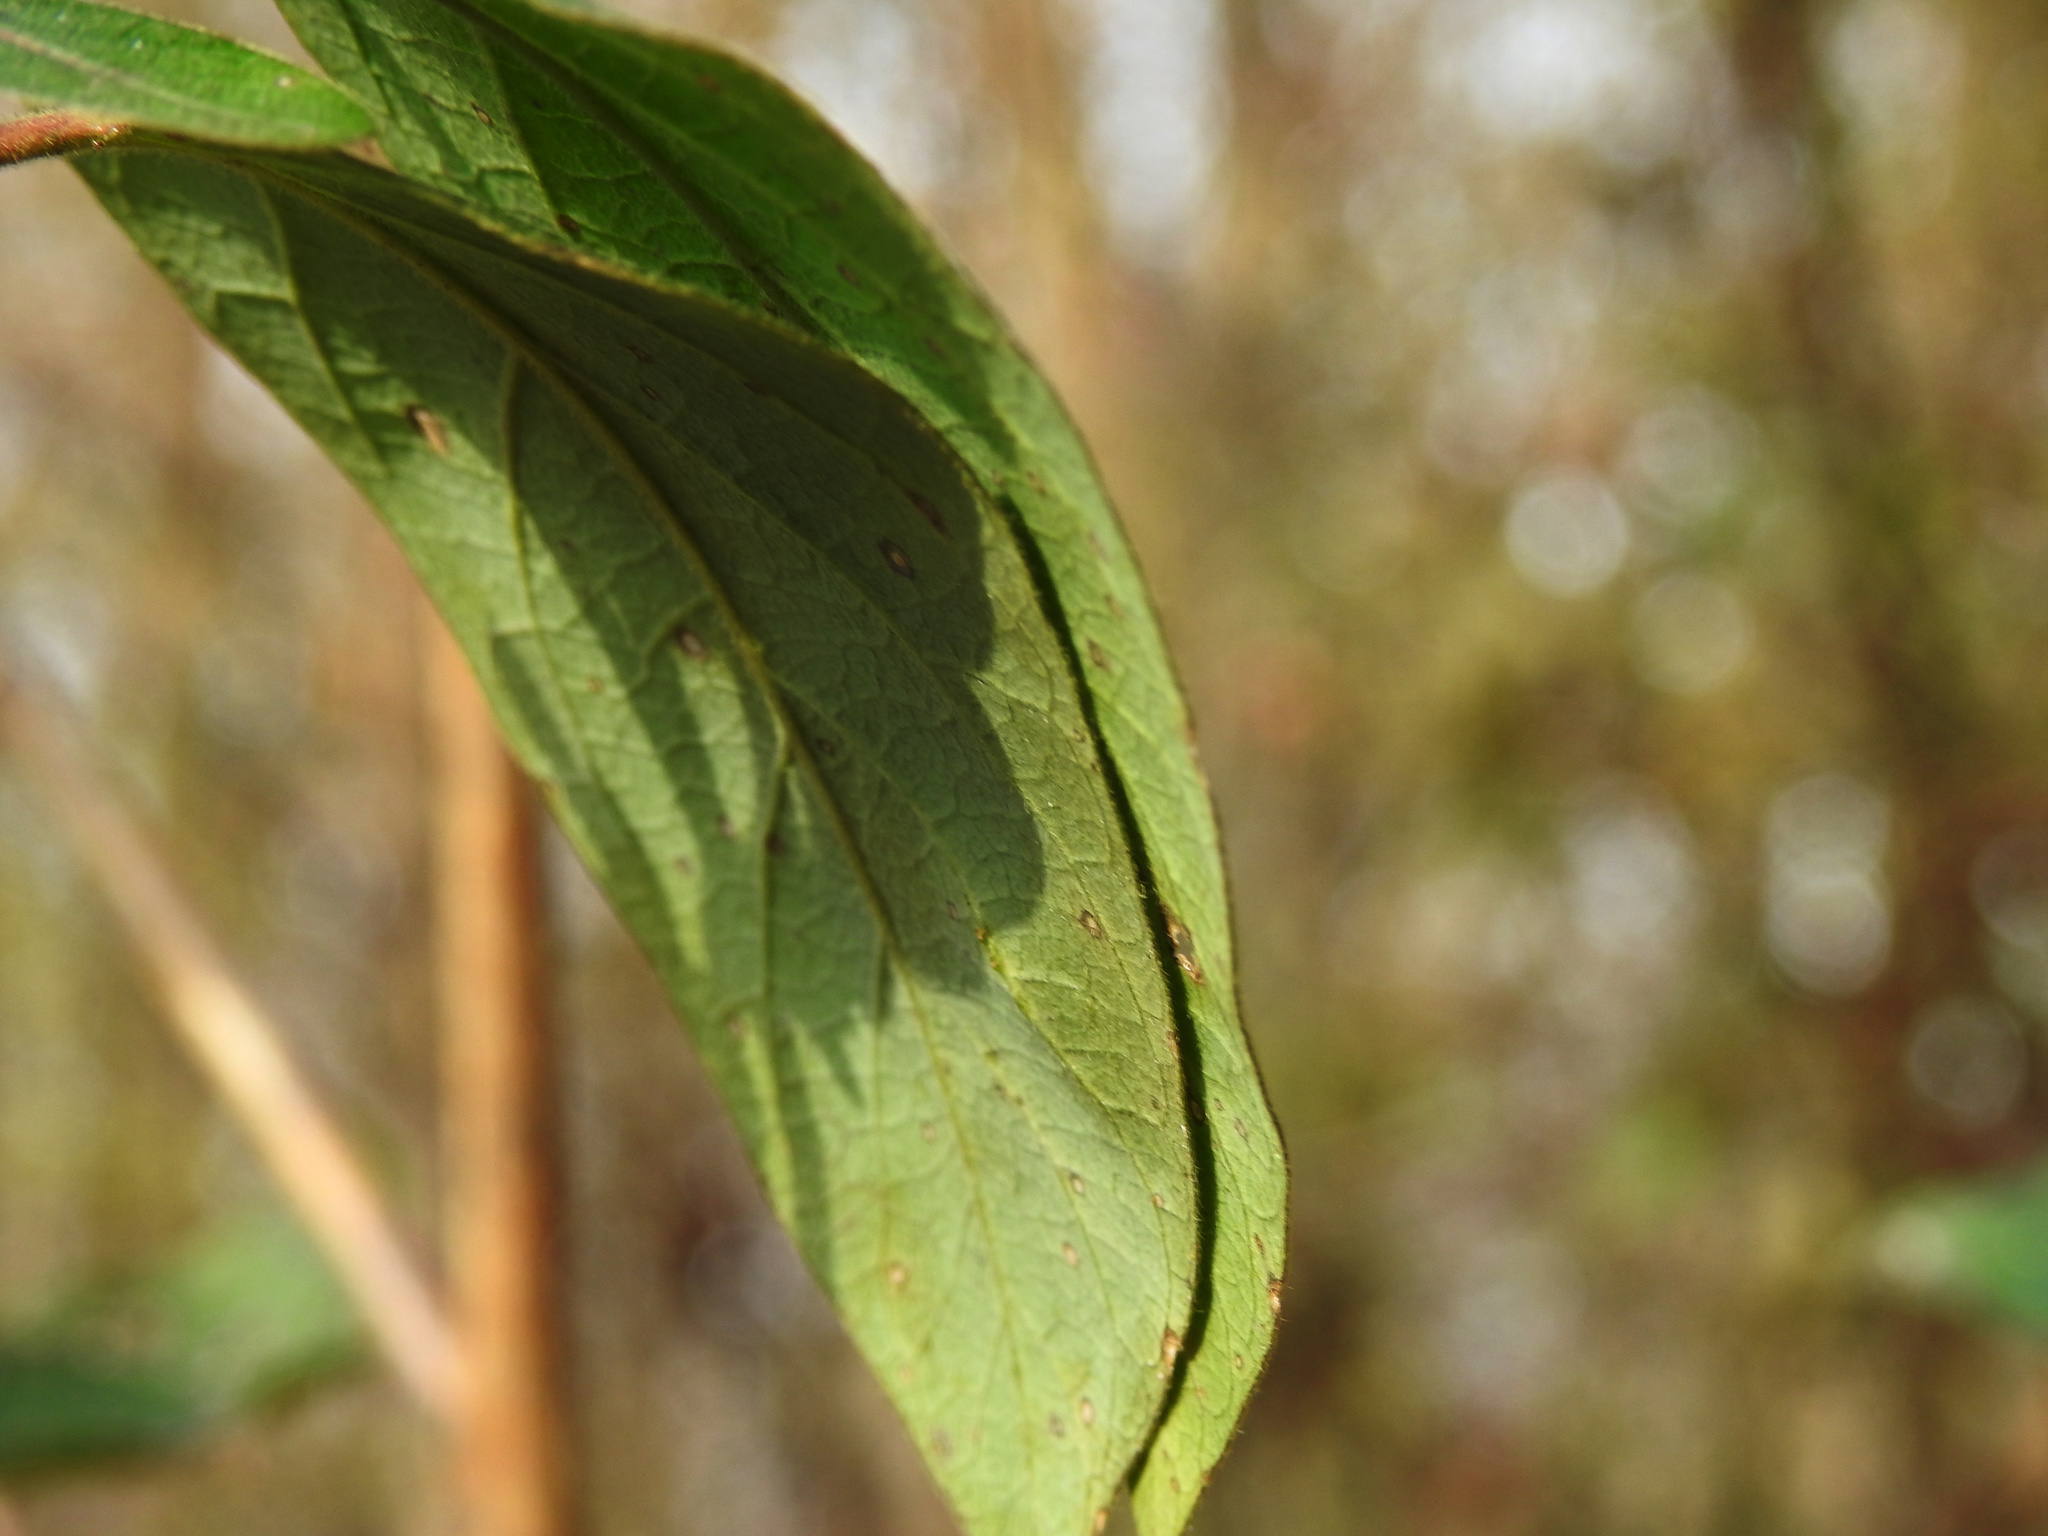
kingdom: Plantae
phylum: Tracheophyta
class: Magnoliopsida
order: Dipsacales
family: Caprifoliaceae
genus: Lonicera
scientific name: Lonicera japonica
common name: Japanese honeysuckle
